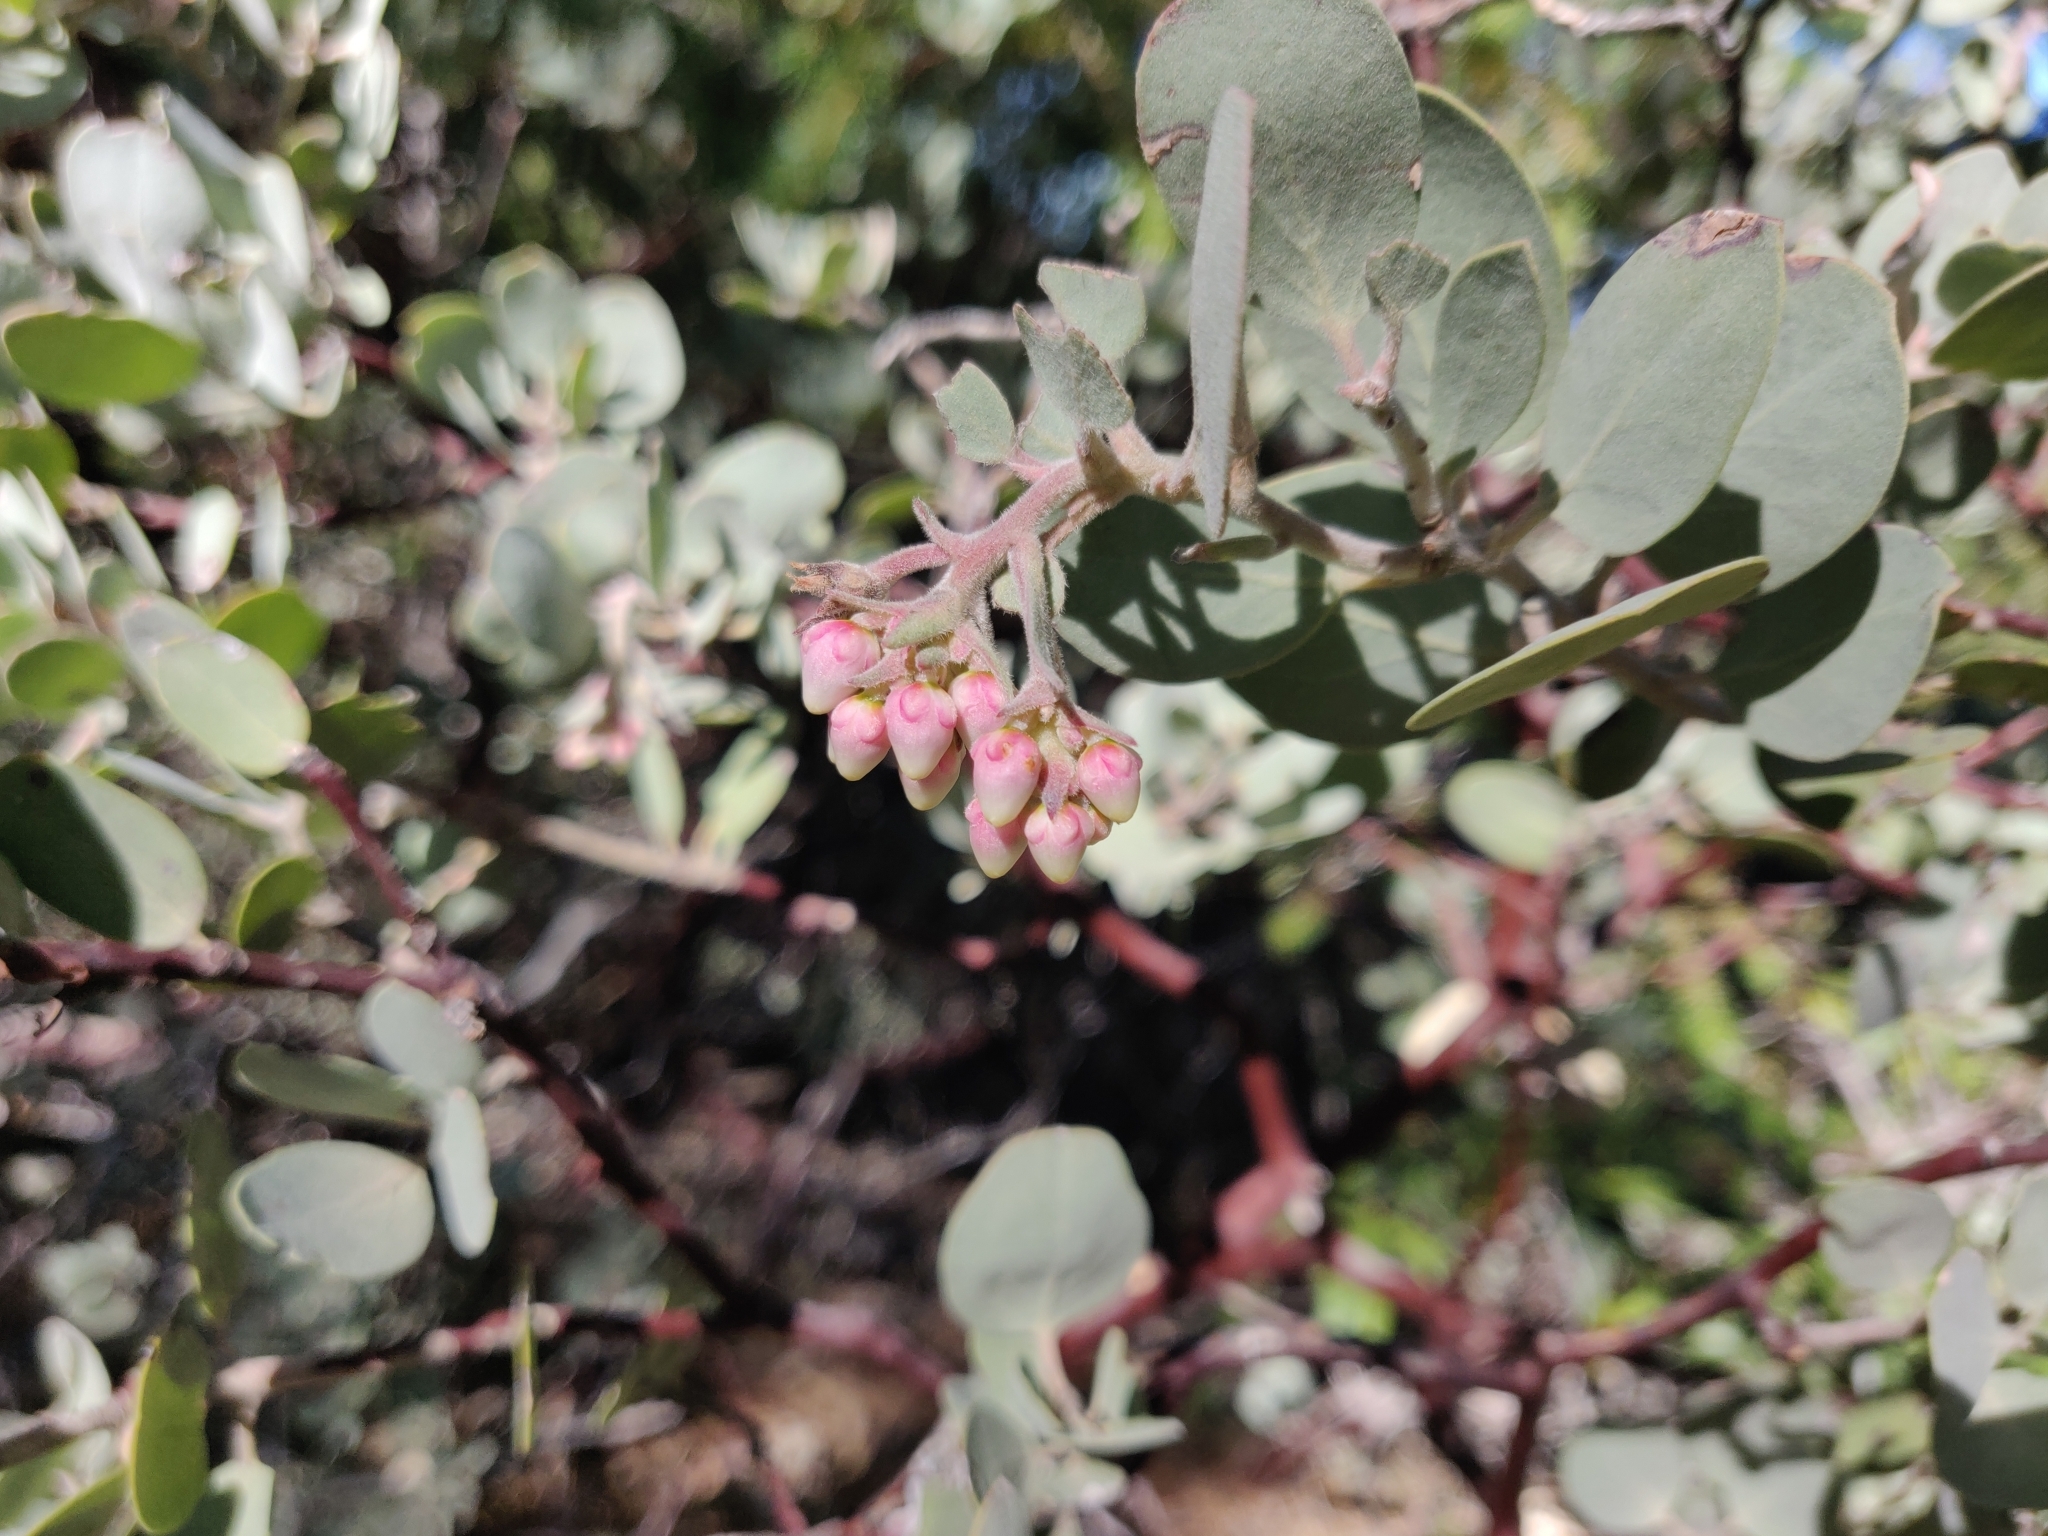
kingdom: Plantae
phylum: Tracheophyta
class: Magnoliopsida
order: Ericales
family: Ericaceae
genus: Arctostaphylos
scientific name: Arctostaphylos canescens
